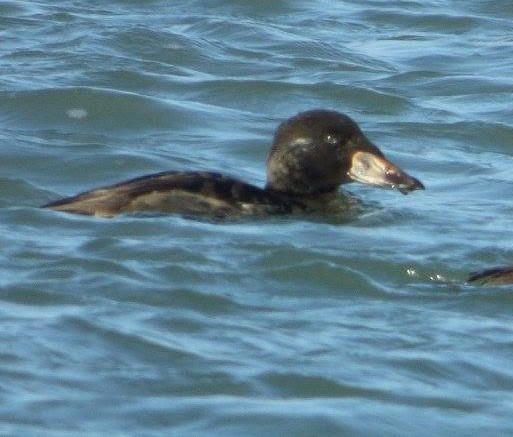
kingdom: Animalia
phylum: Chordata
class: Aves
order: Anseriformes
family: Anatidae
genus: Melanitta
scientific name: Melanitta perspicillata
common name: Surf scoter
